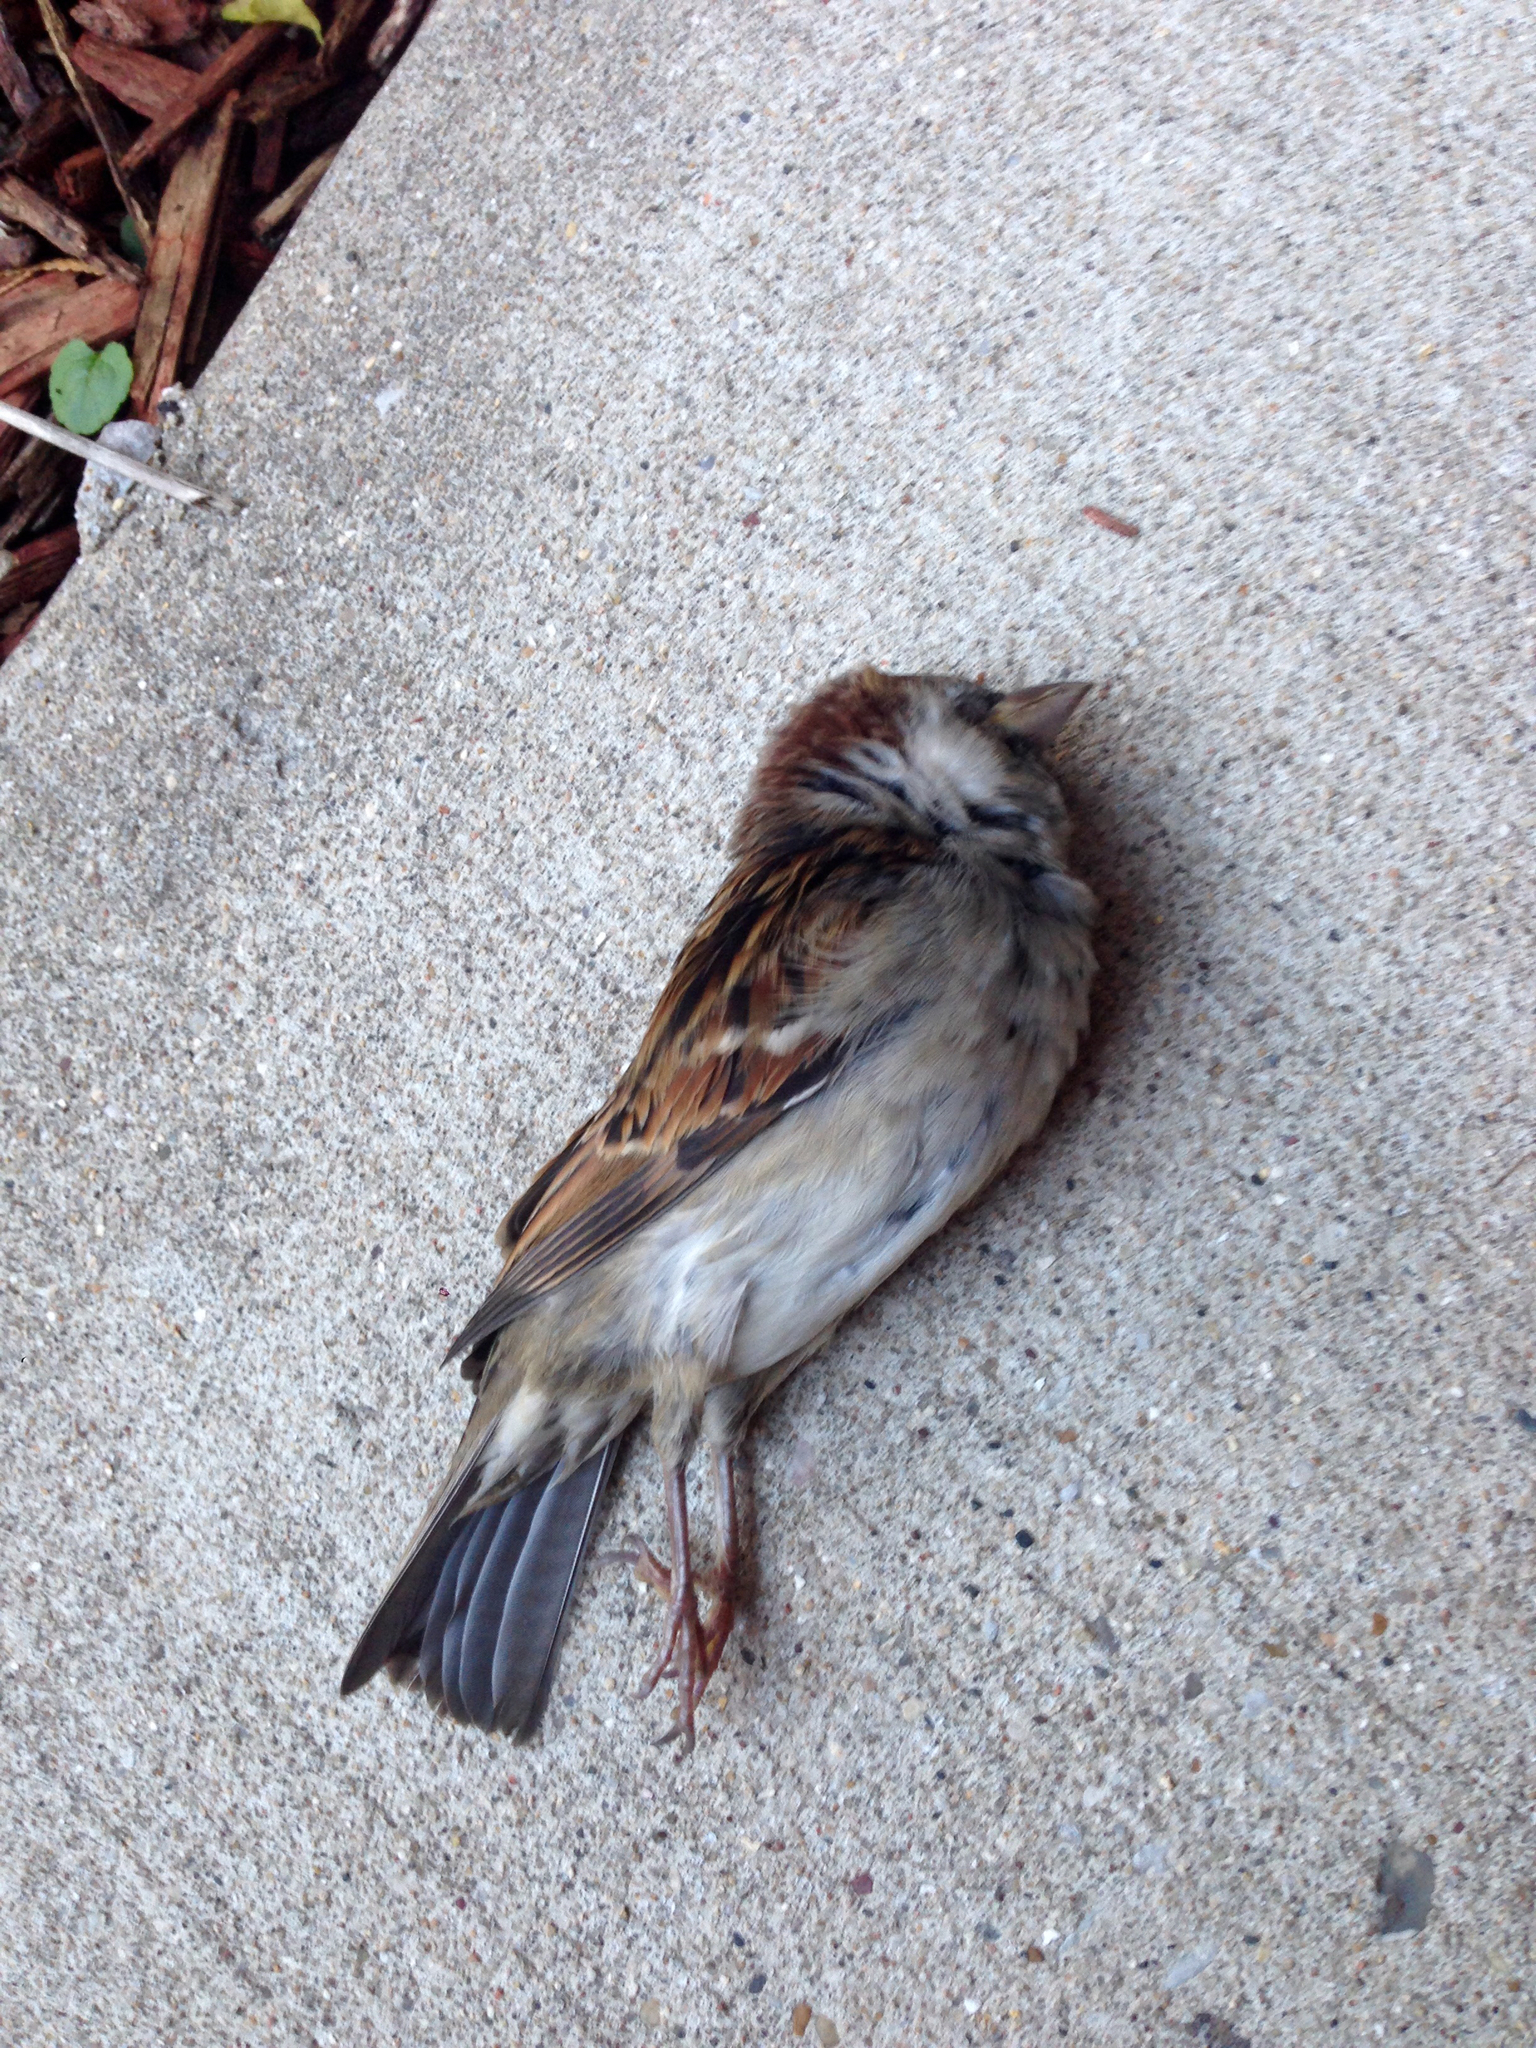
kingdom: Animalia
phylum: Chordata
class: Aves
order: Passeriformes
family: Passeridae
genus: Passer
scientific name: Passer domesticus
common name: House sparrow
